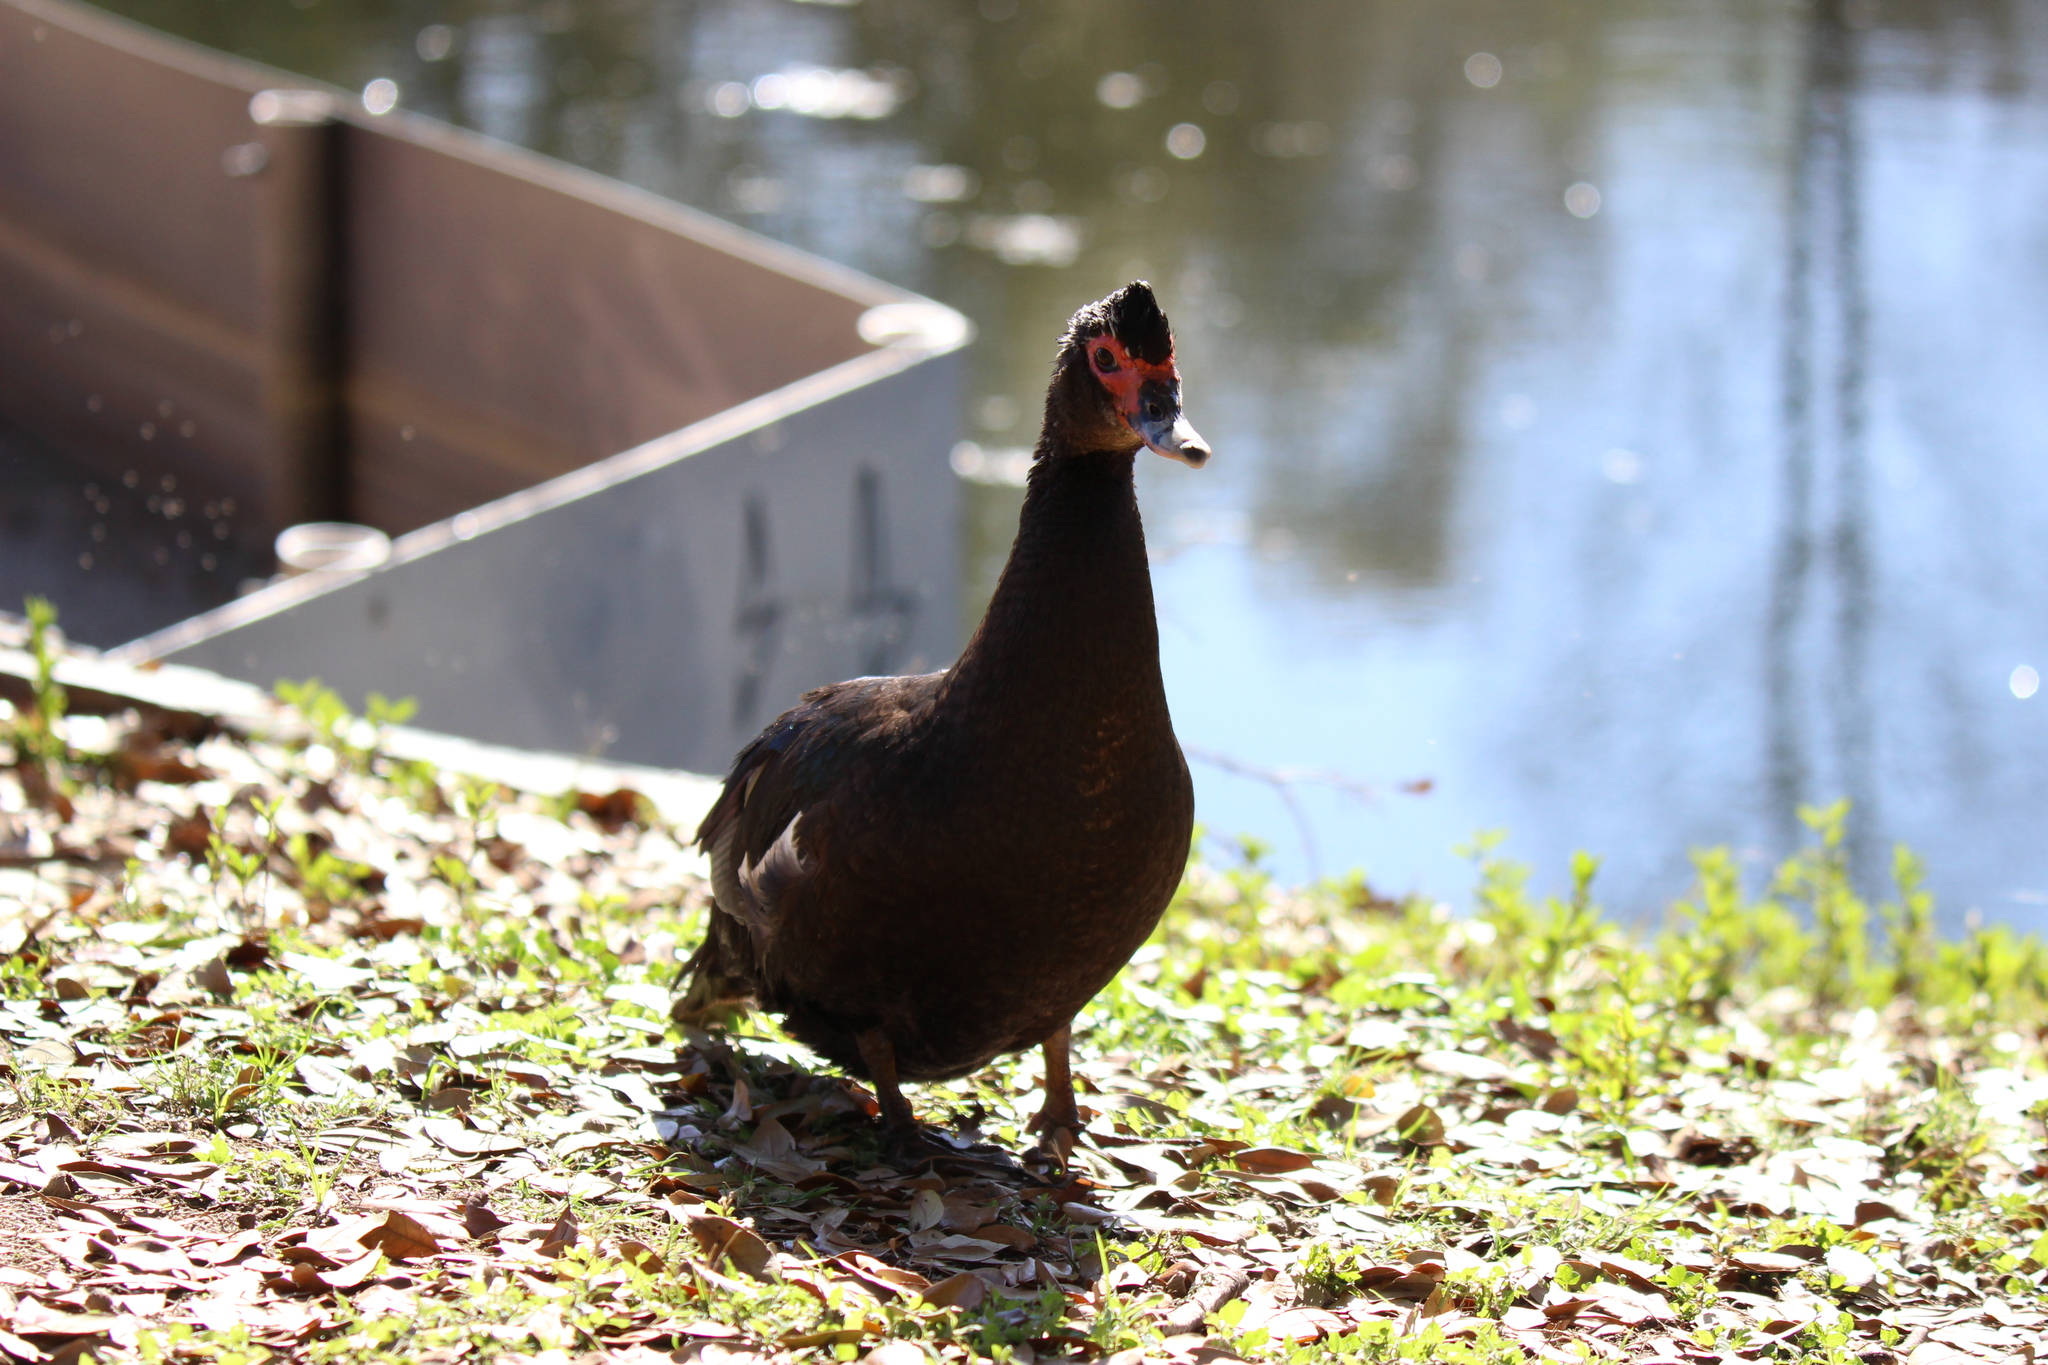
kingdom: Animalia
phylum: Chordata
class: Aves
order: Anseriformes
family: Anatidae
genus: Cairina
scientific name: Cairina moschata
